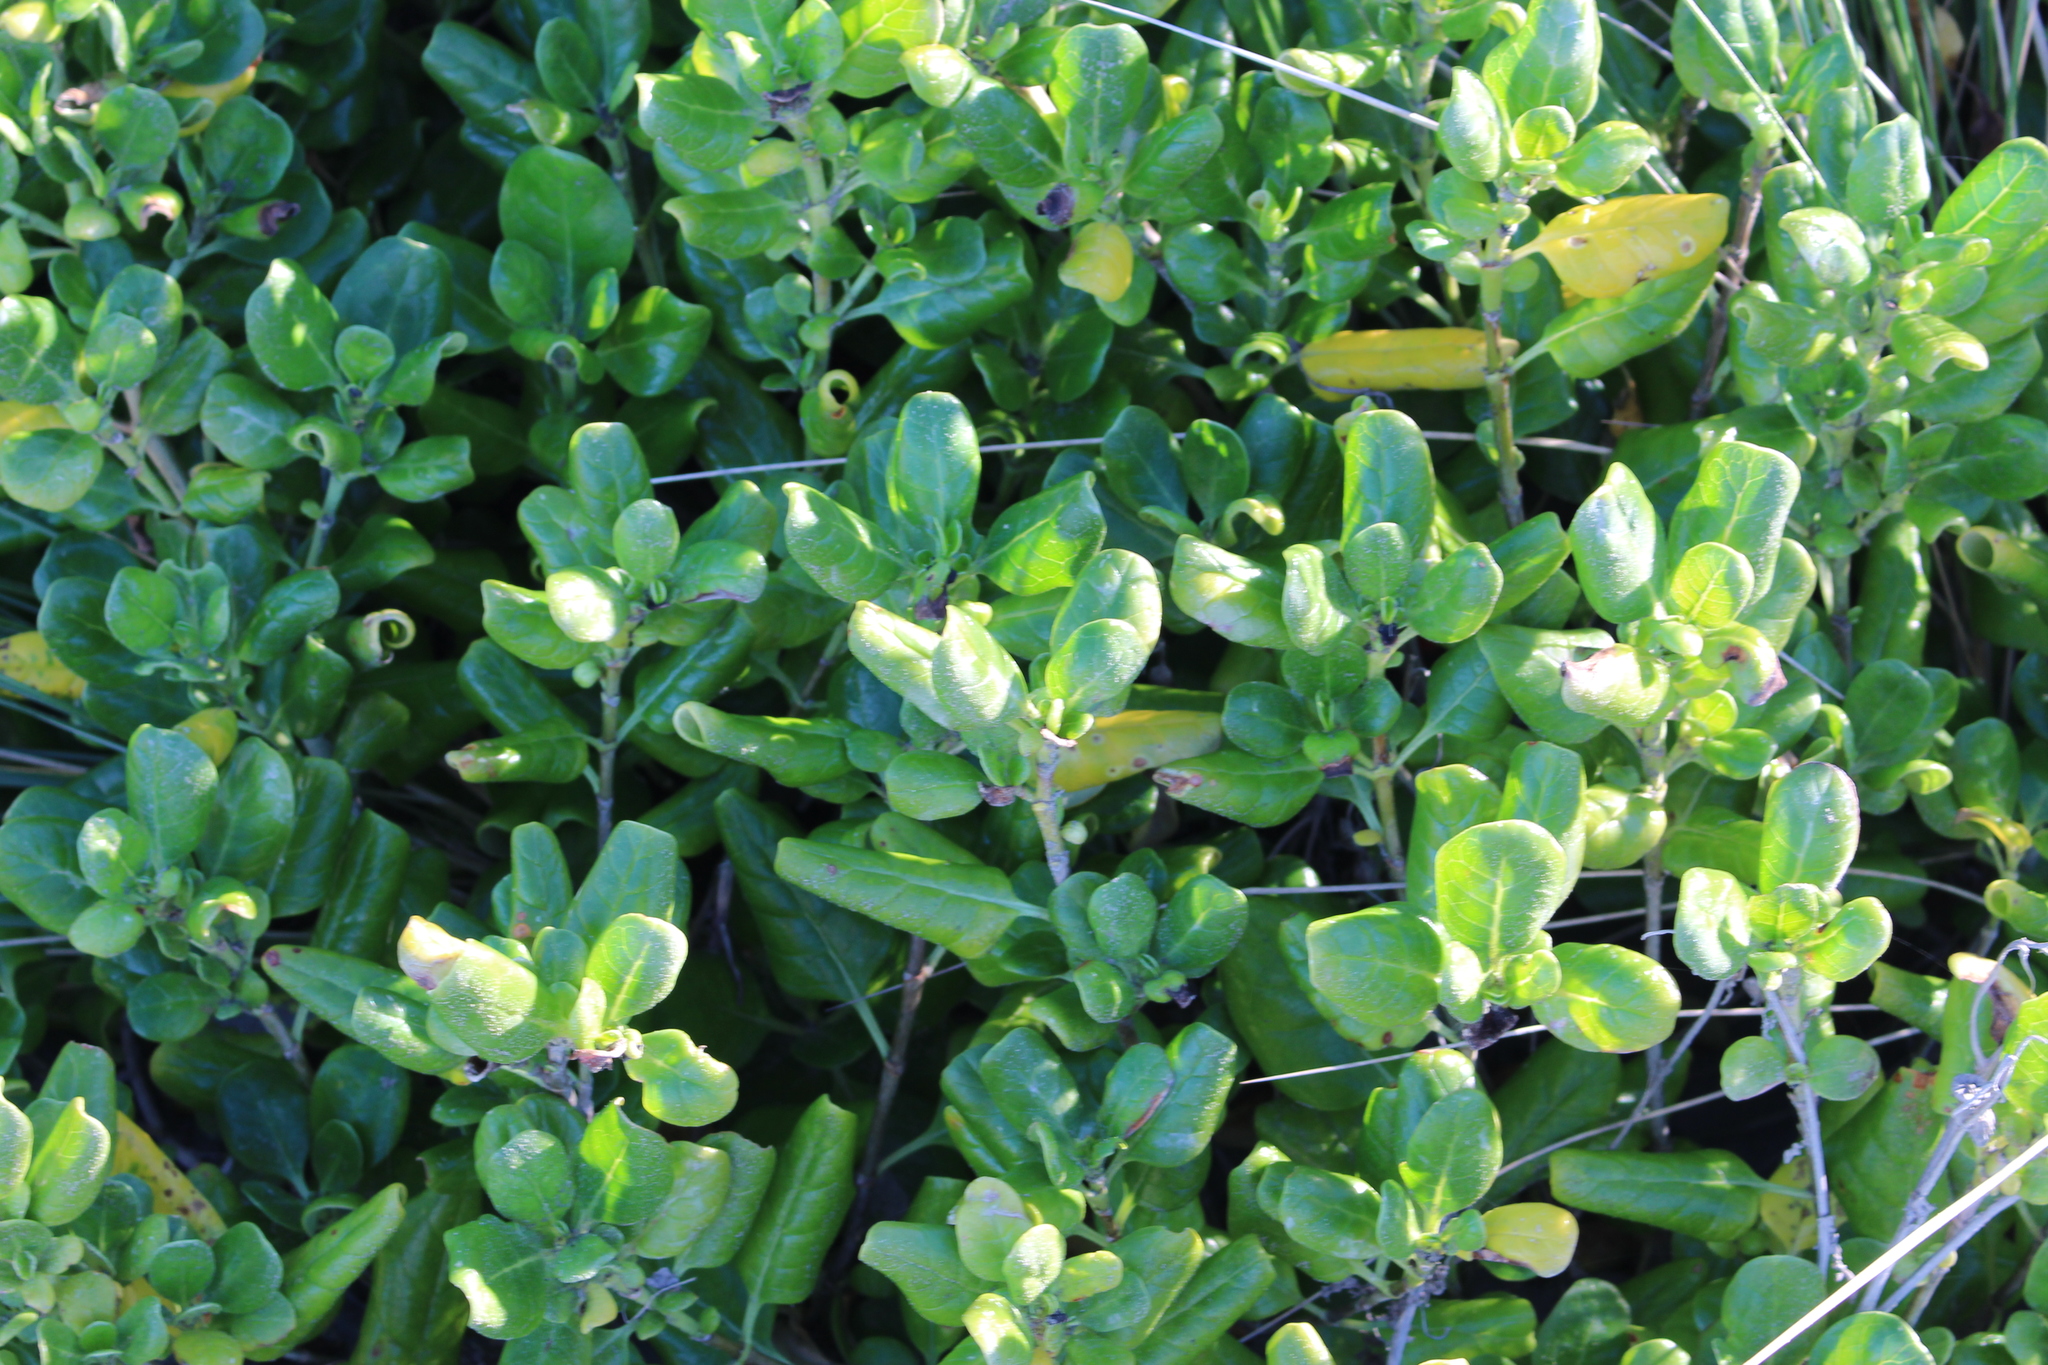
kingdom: Plantae
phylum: Tracheophyta
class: Magnoliopsida
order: Gentianales
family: Rubiaceae
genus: Coprosma
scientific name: Coprosma repens
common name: Tree bedstraw
